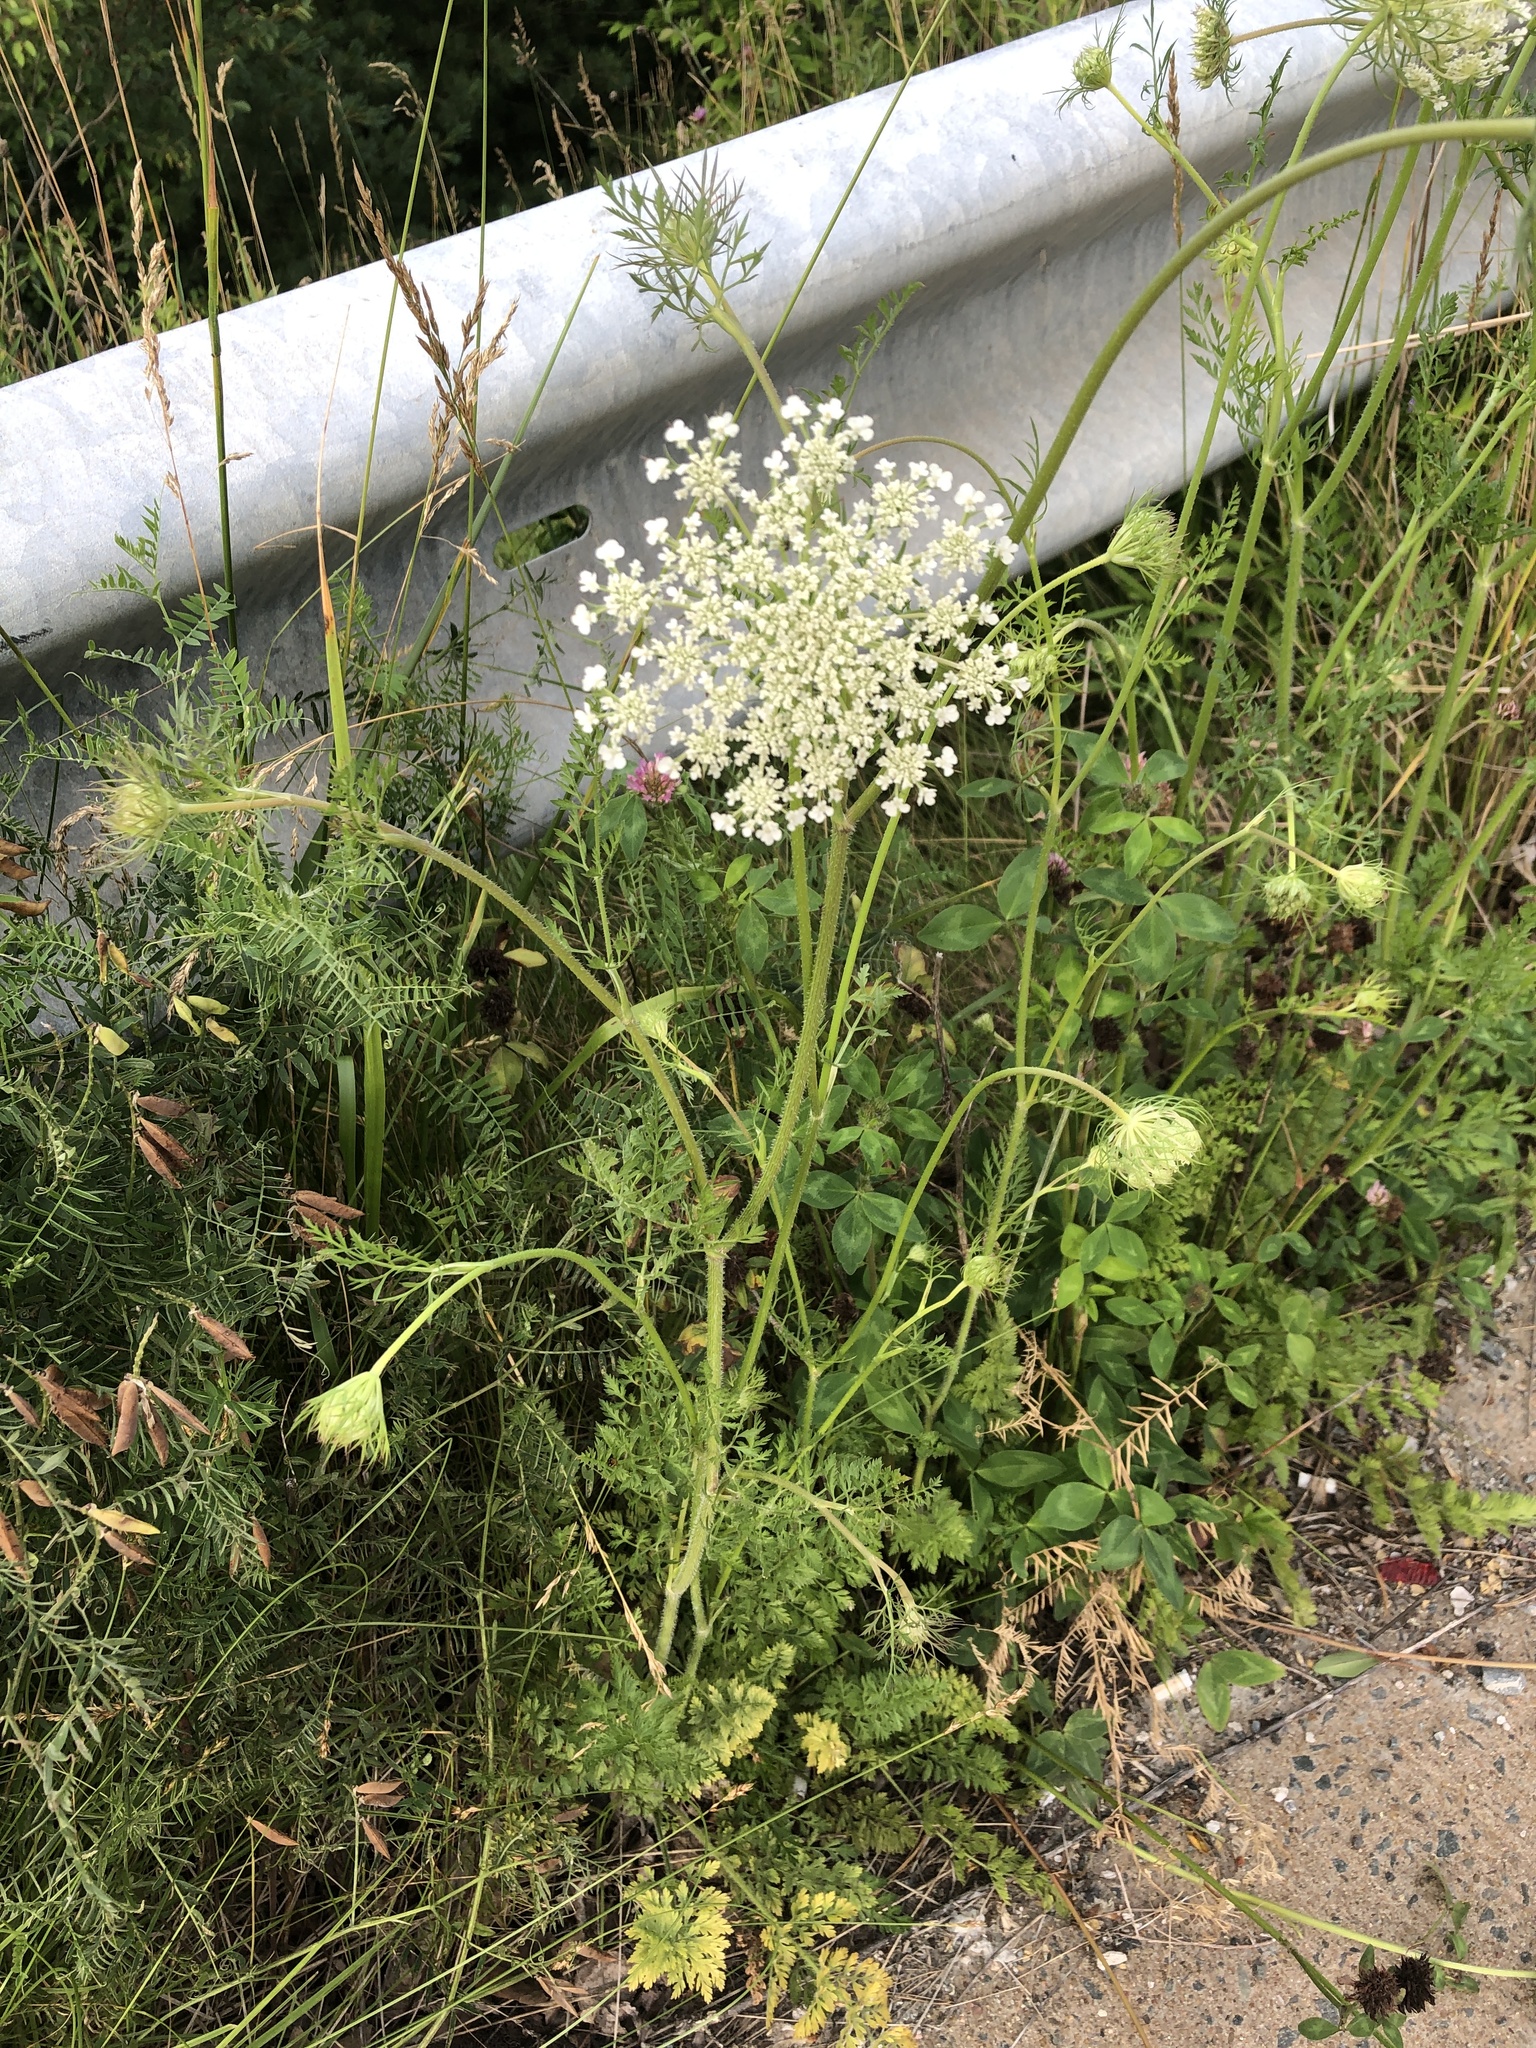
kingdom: Plantae
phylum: Tracheophyta
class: Magnoliopsida
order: Apiales
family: Apiaceae
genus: Daucus
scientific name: Daucus carota
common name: Wild carrot
